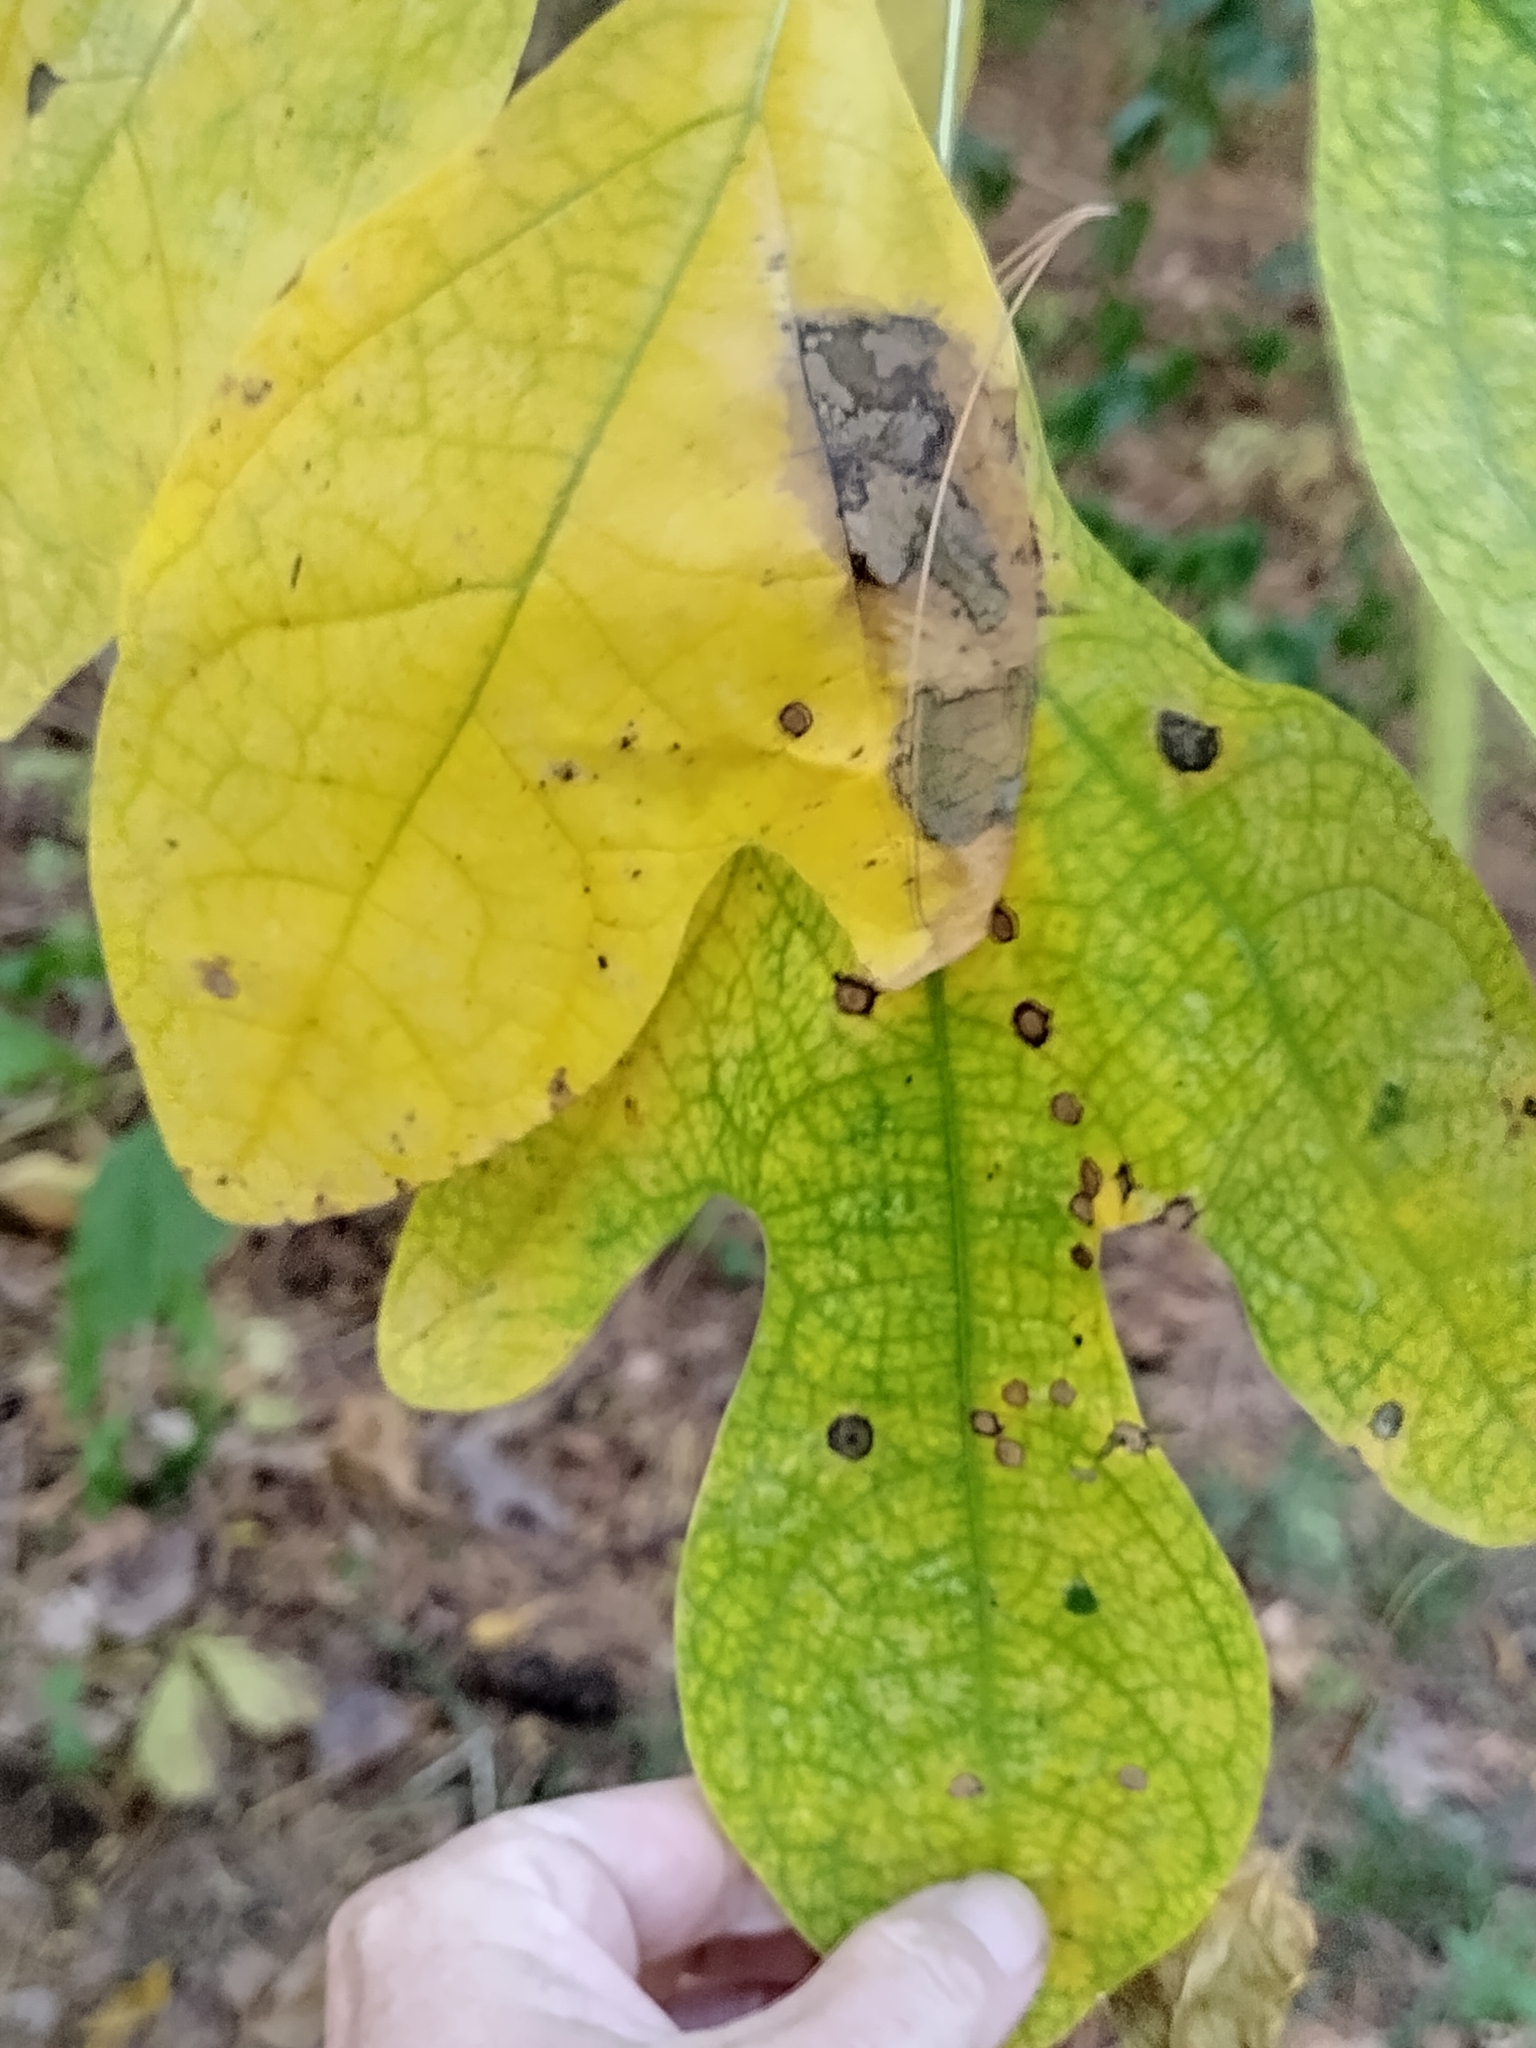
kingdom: Plantae
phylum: Tracheophyta
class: Magnoliopsida
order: Laurales
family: Lauraceae
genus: Sassafras
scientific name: Sassafras albidum
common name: Sassafras
